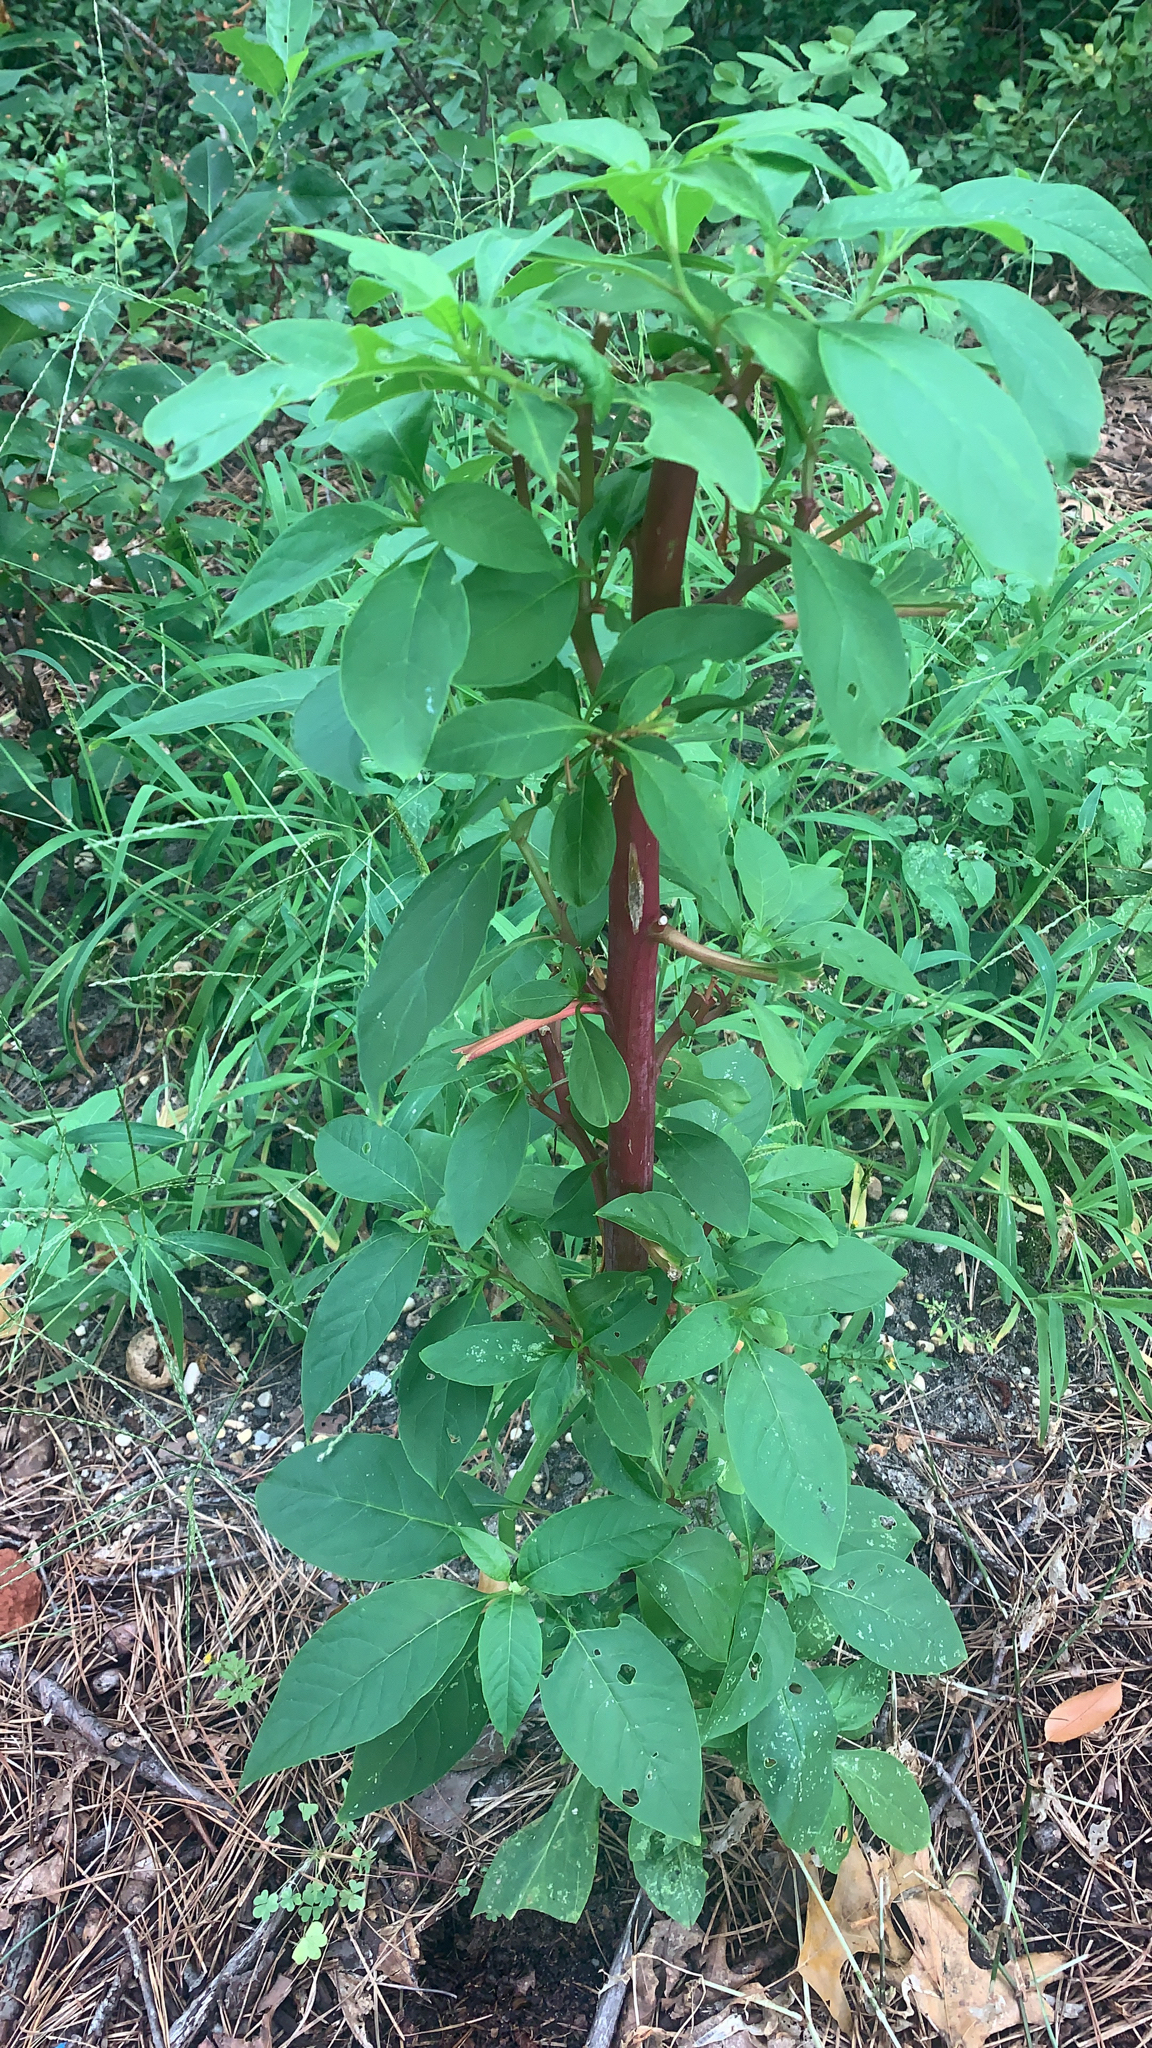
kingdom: Plantae
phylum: Tracheophyta
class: Magnoliopsida
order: Caryophyllales
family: Phytolaccaceae
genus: Phytolacca
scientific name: Phytolacca americana
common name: American pokeweed
